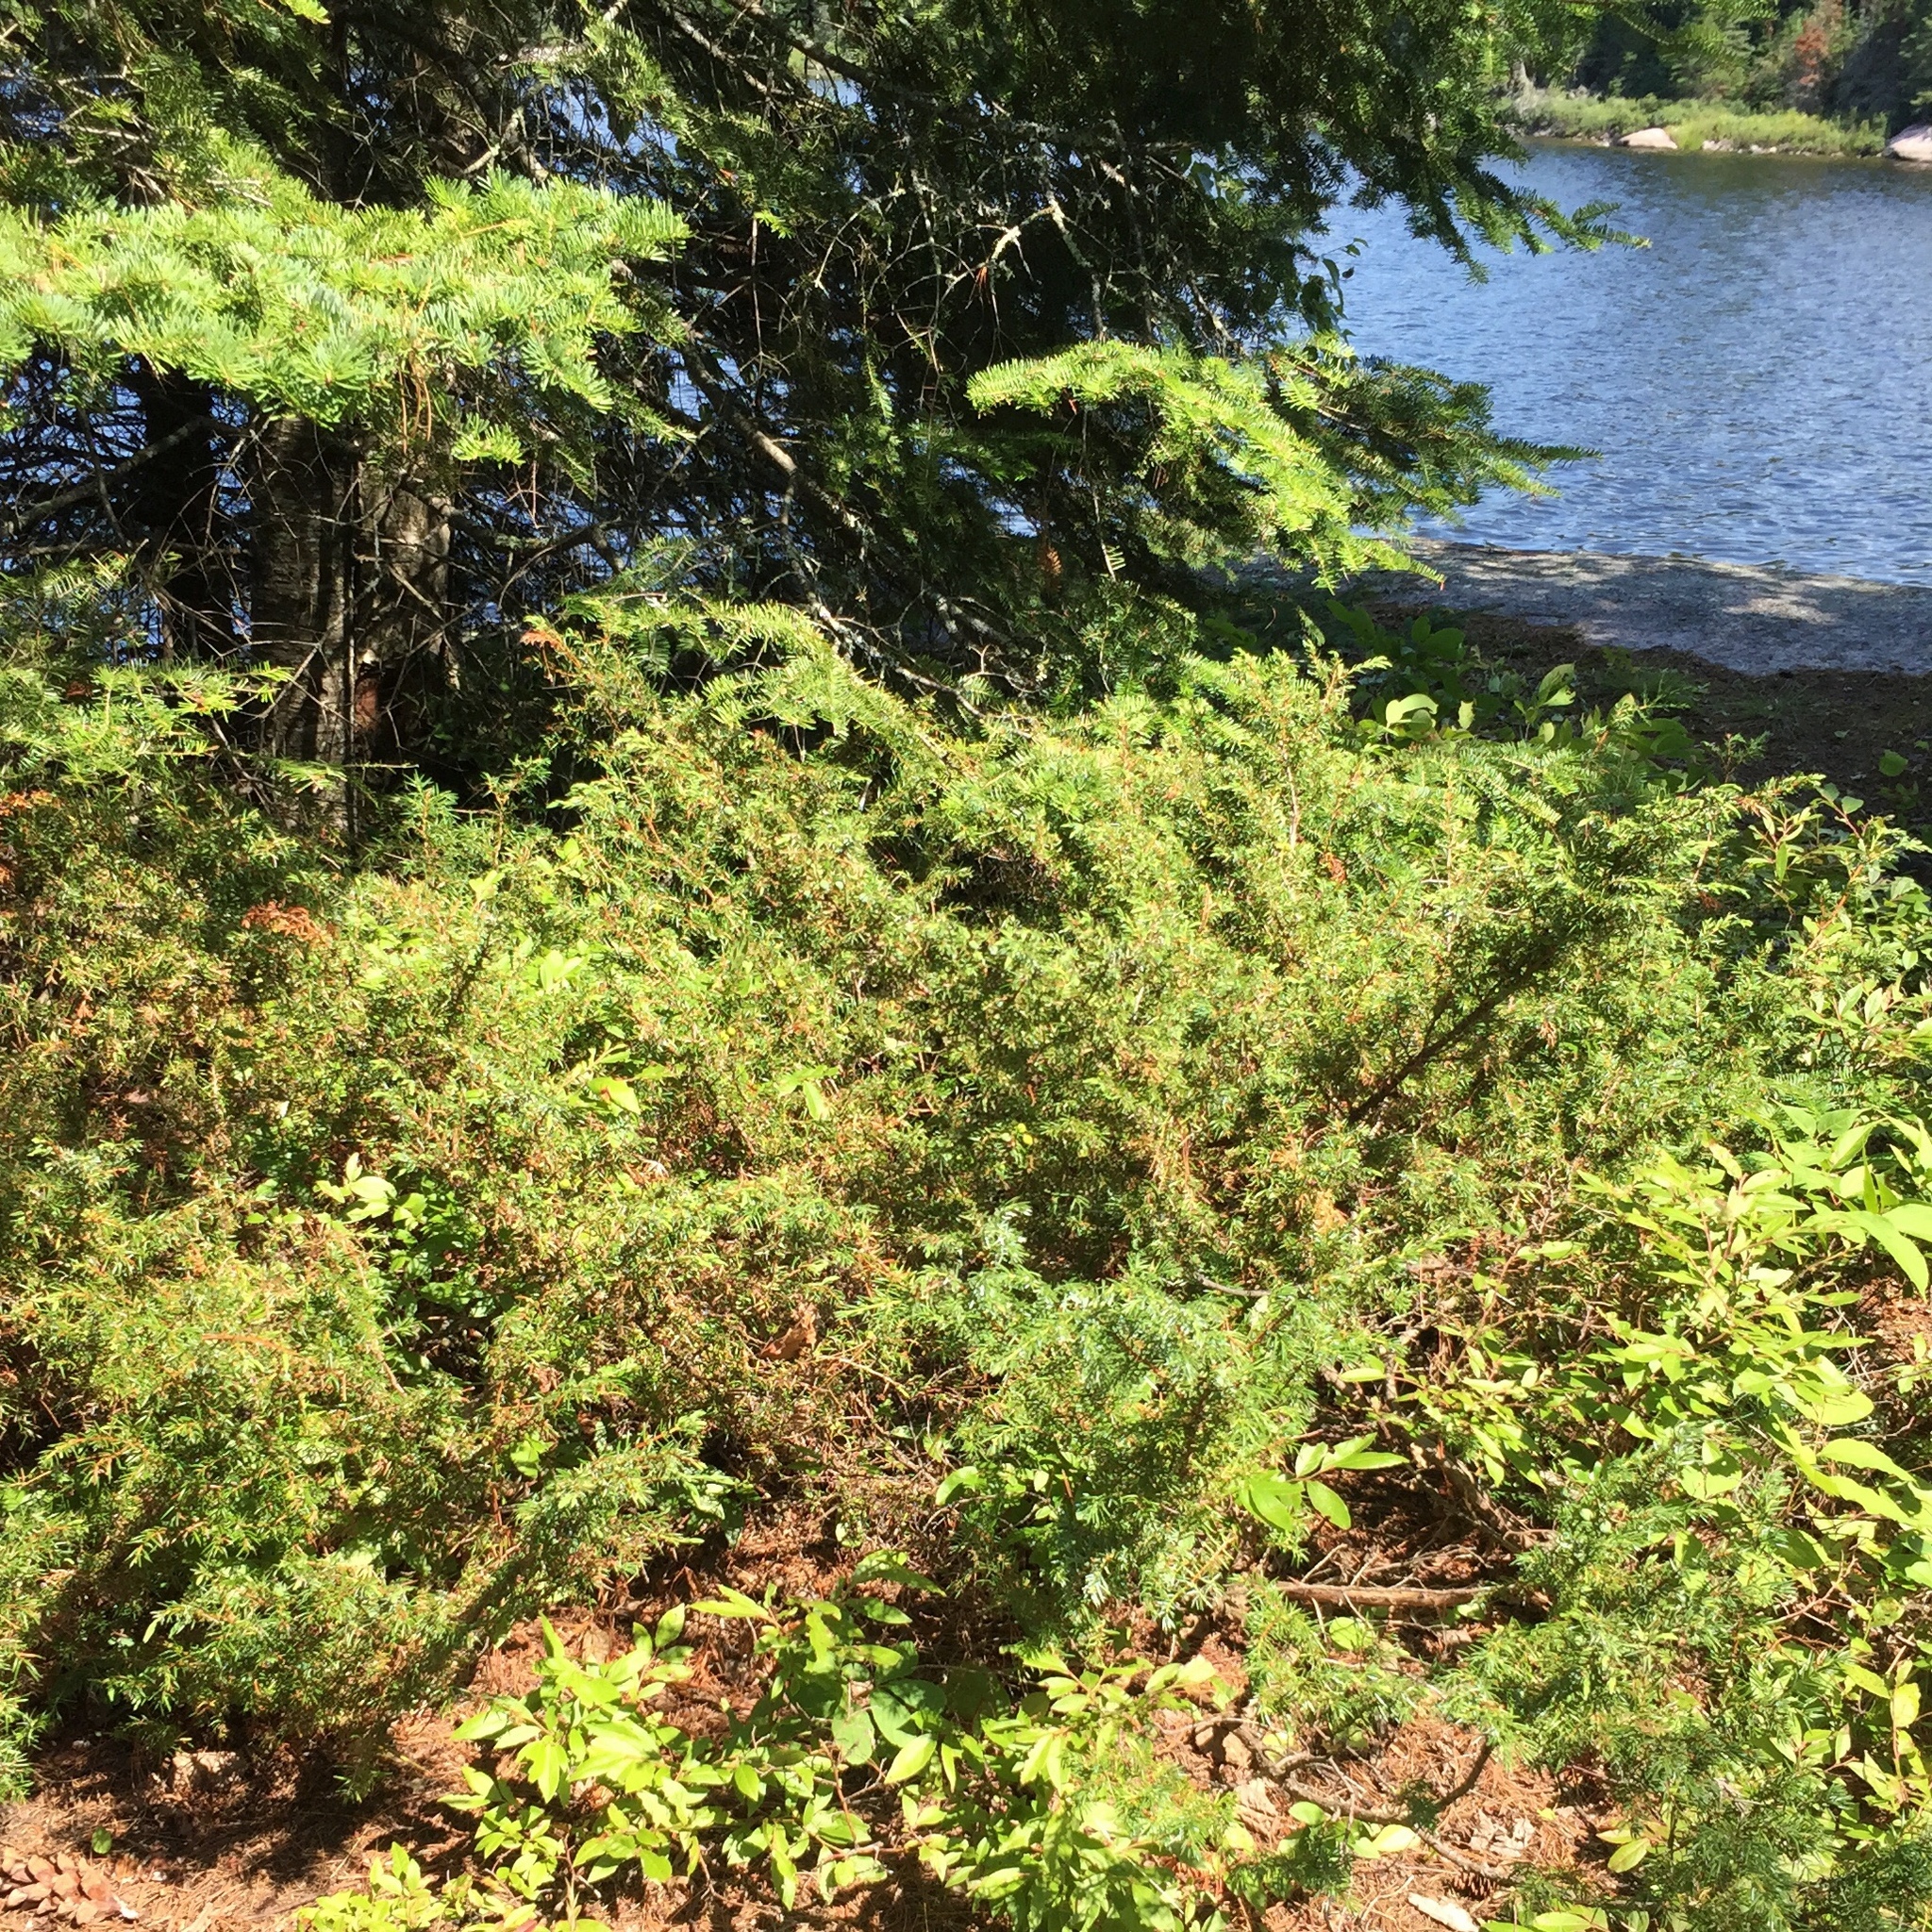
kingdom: Plantae
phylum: Tracheophyta
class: Pinopsida
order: Pinales
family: Cupressaceae
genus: Juniperus
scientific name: Juniperus communis
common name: Common juniper
